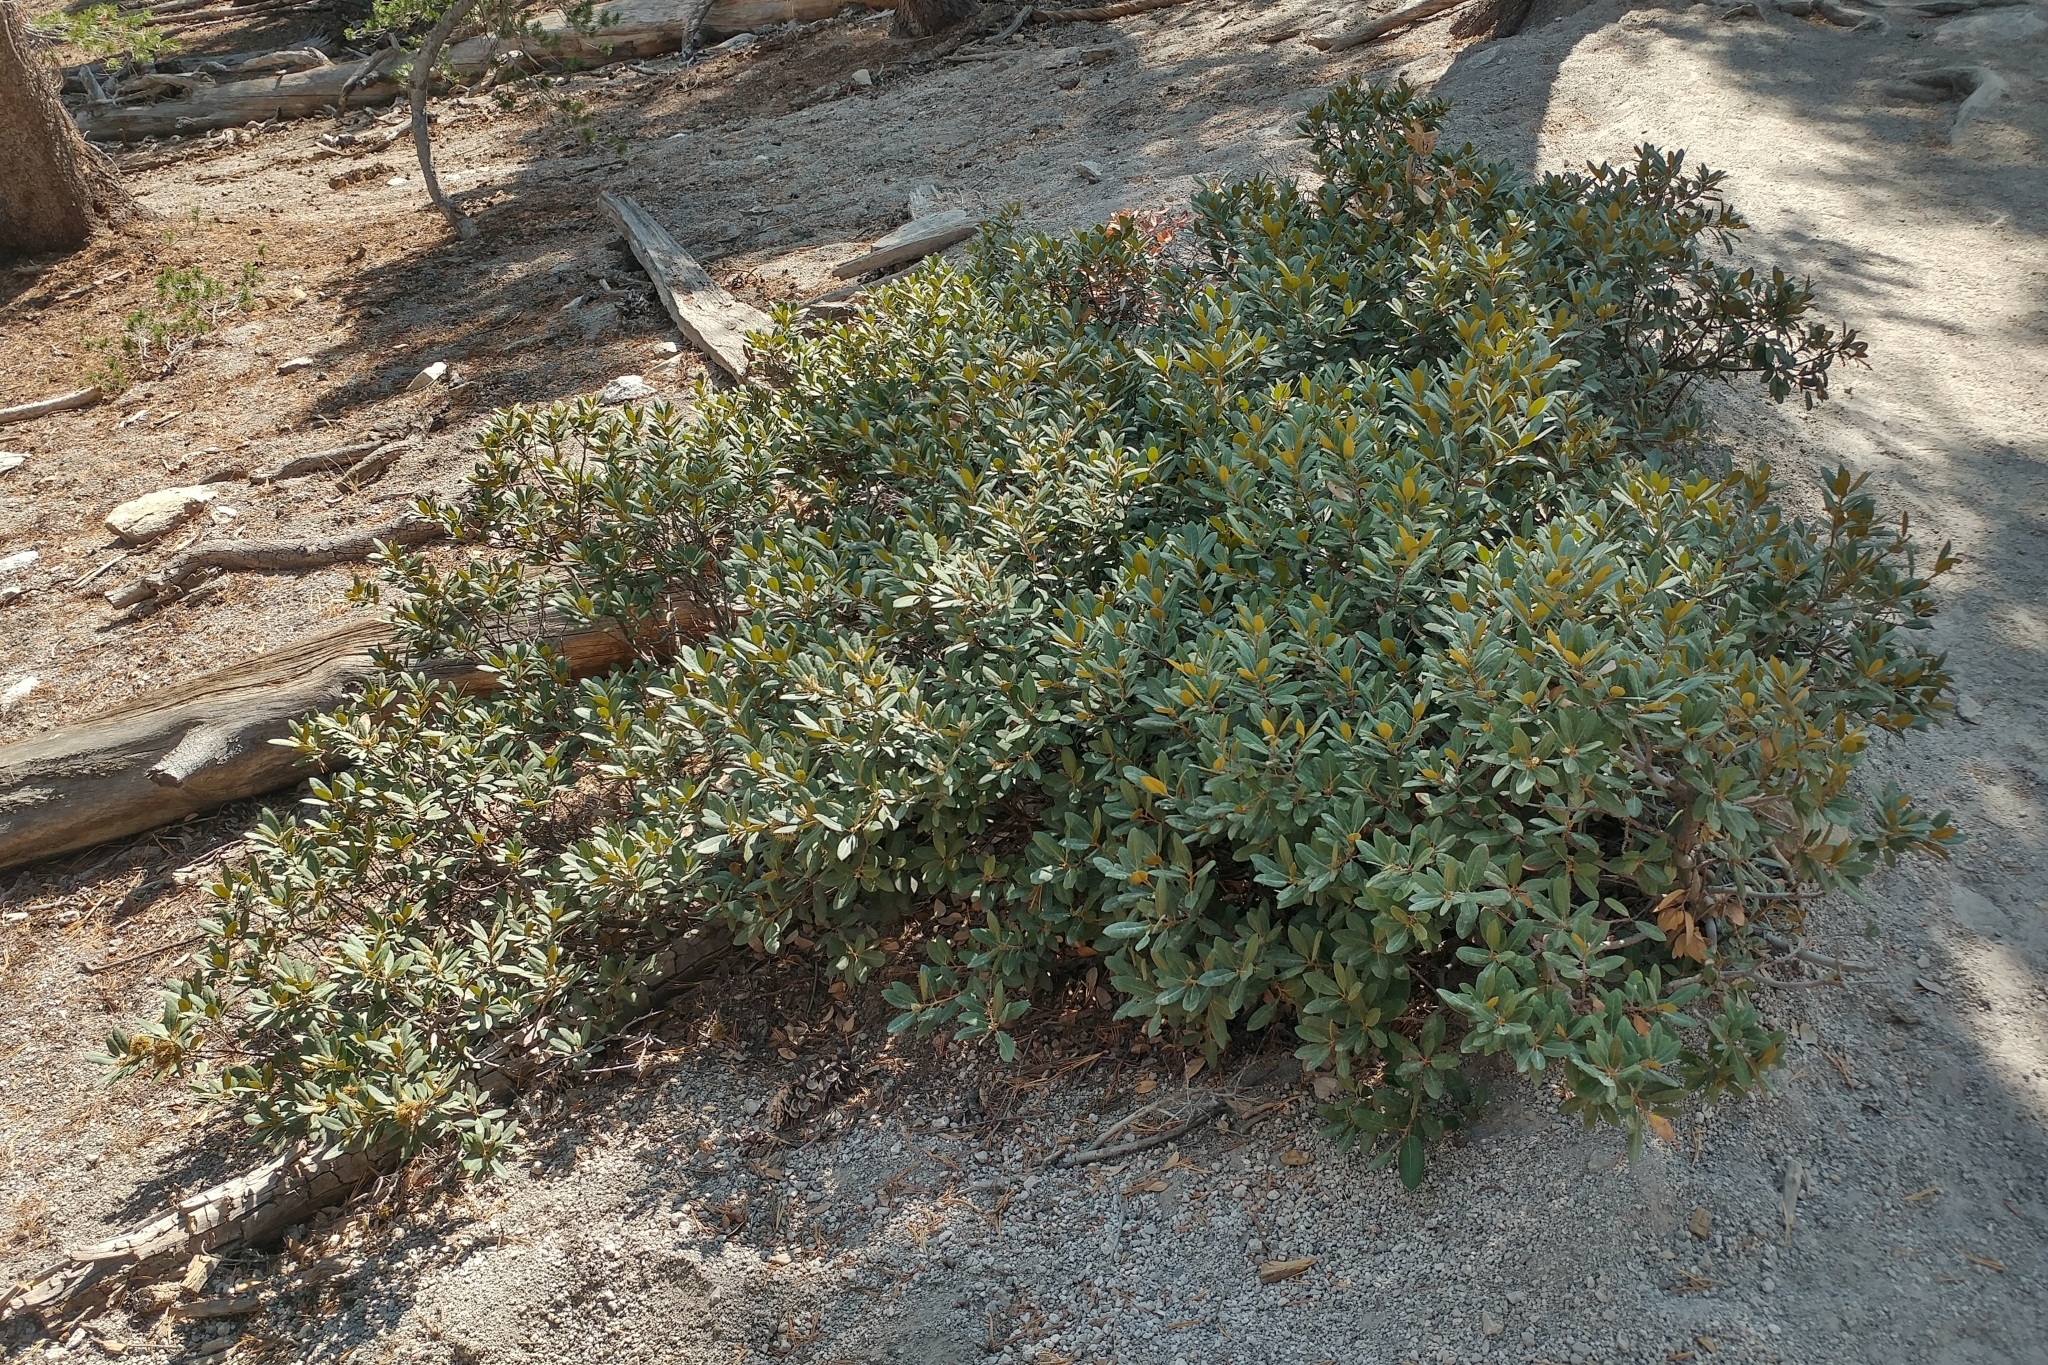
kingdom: Plantae
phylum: Tracheophyta
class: Magnoliopsida
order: Fagales
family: Fagaceae
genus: Chrysolepis
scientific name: Chrysolepis sempervirens
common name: Bush chinquapin
